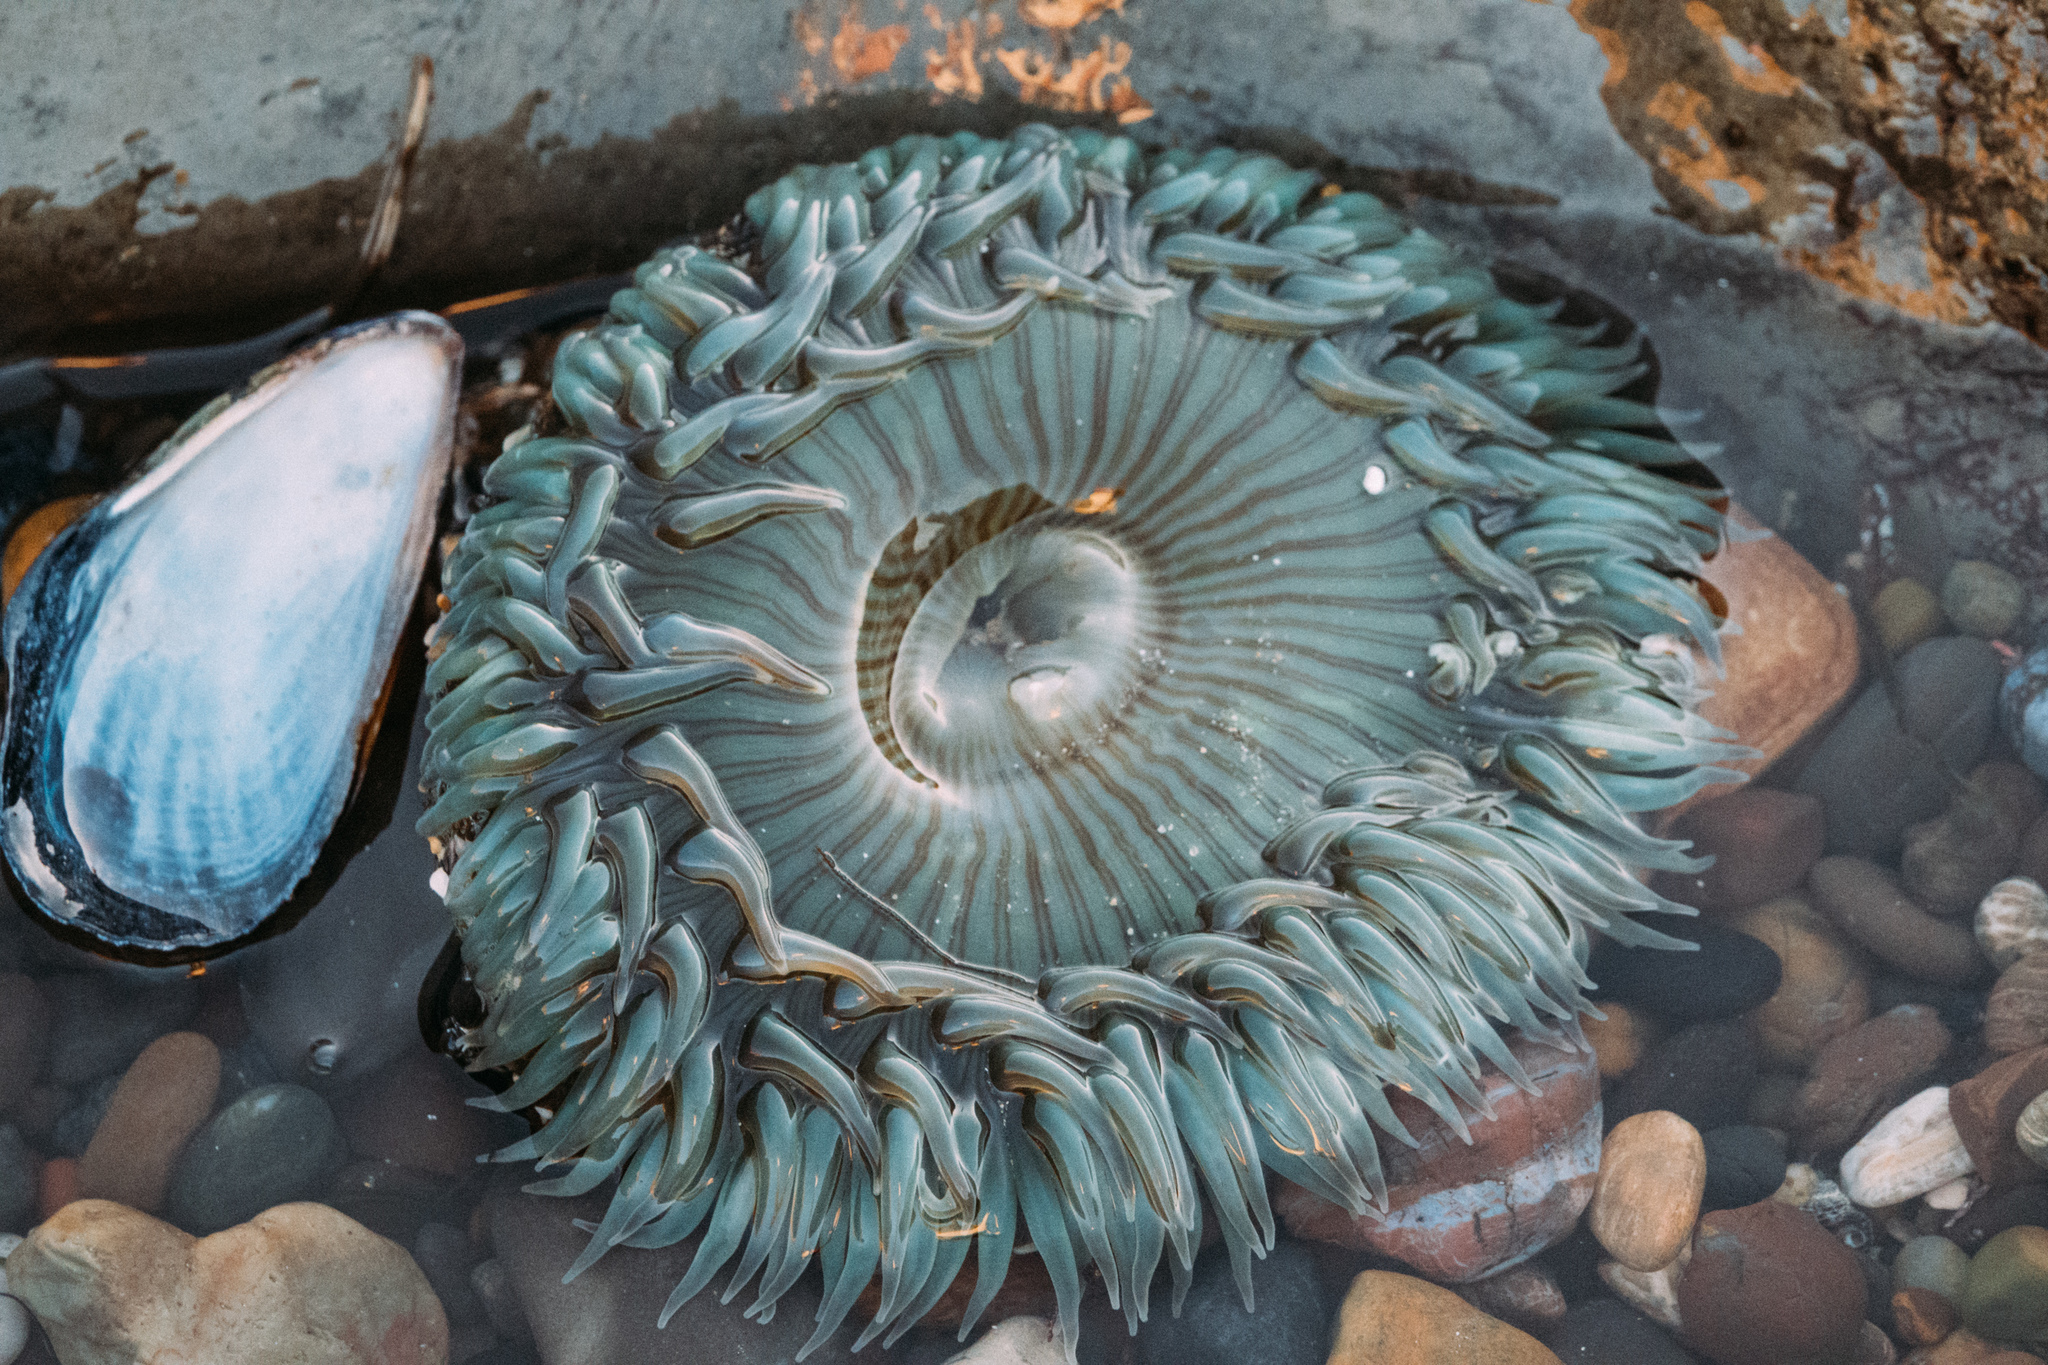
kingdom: Animalia
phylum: Cnidaria
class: Anthozoa
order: Actiniaria
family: Actiniidae
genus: Anthopleura
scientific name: Anthopleura sola
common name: Sun anemone
